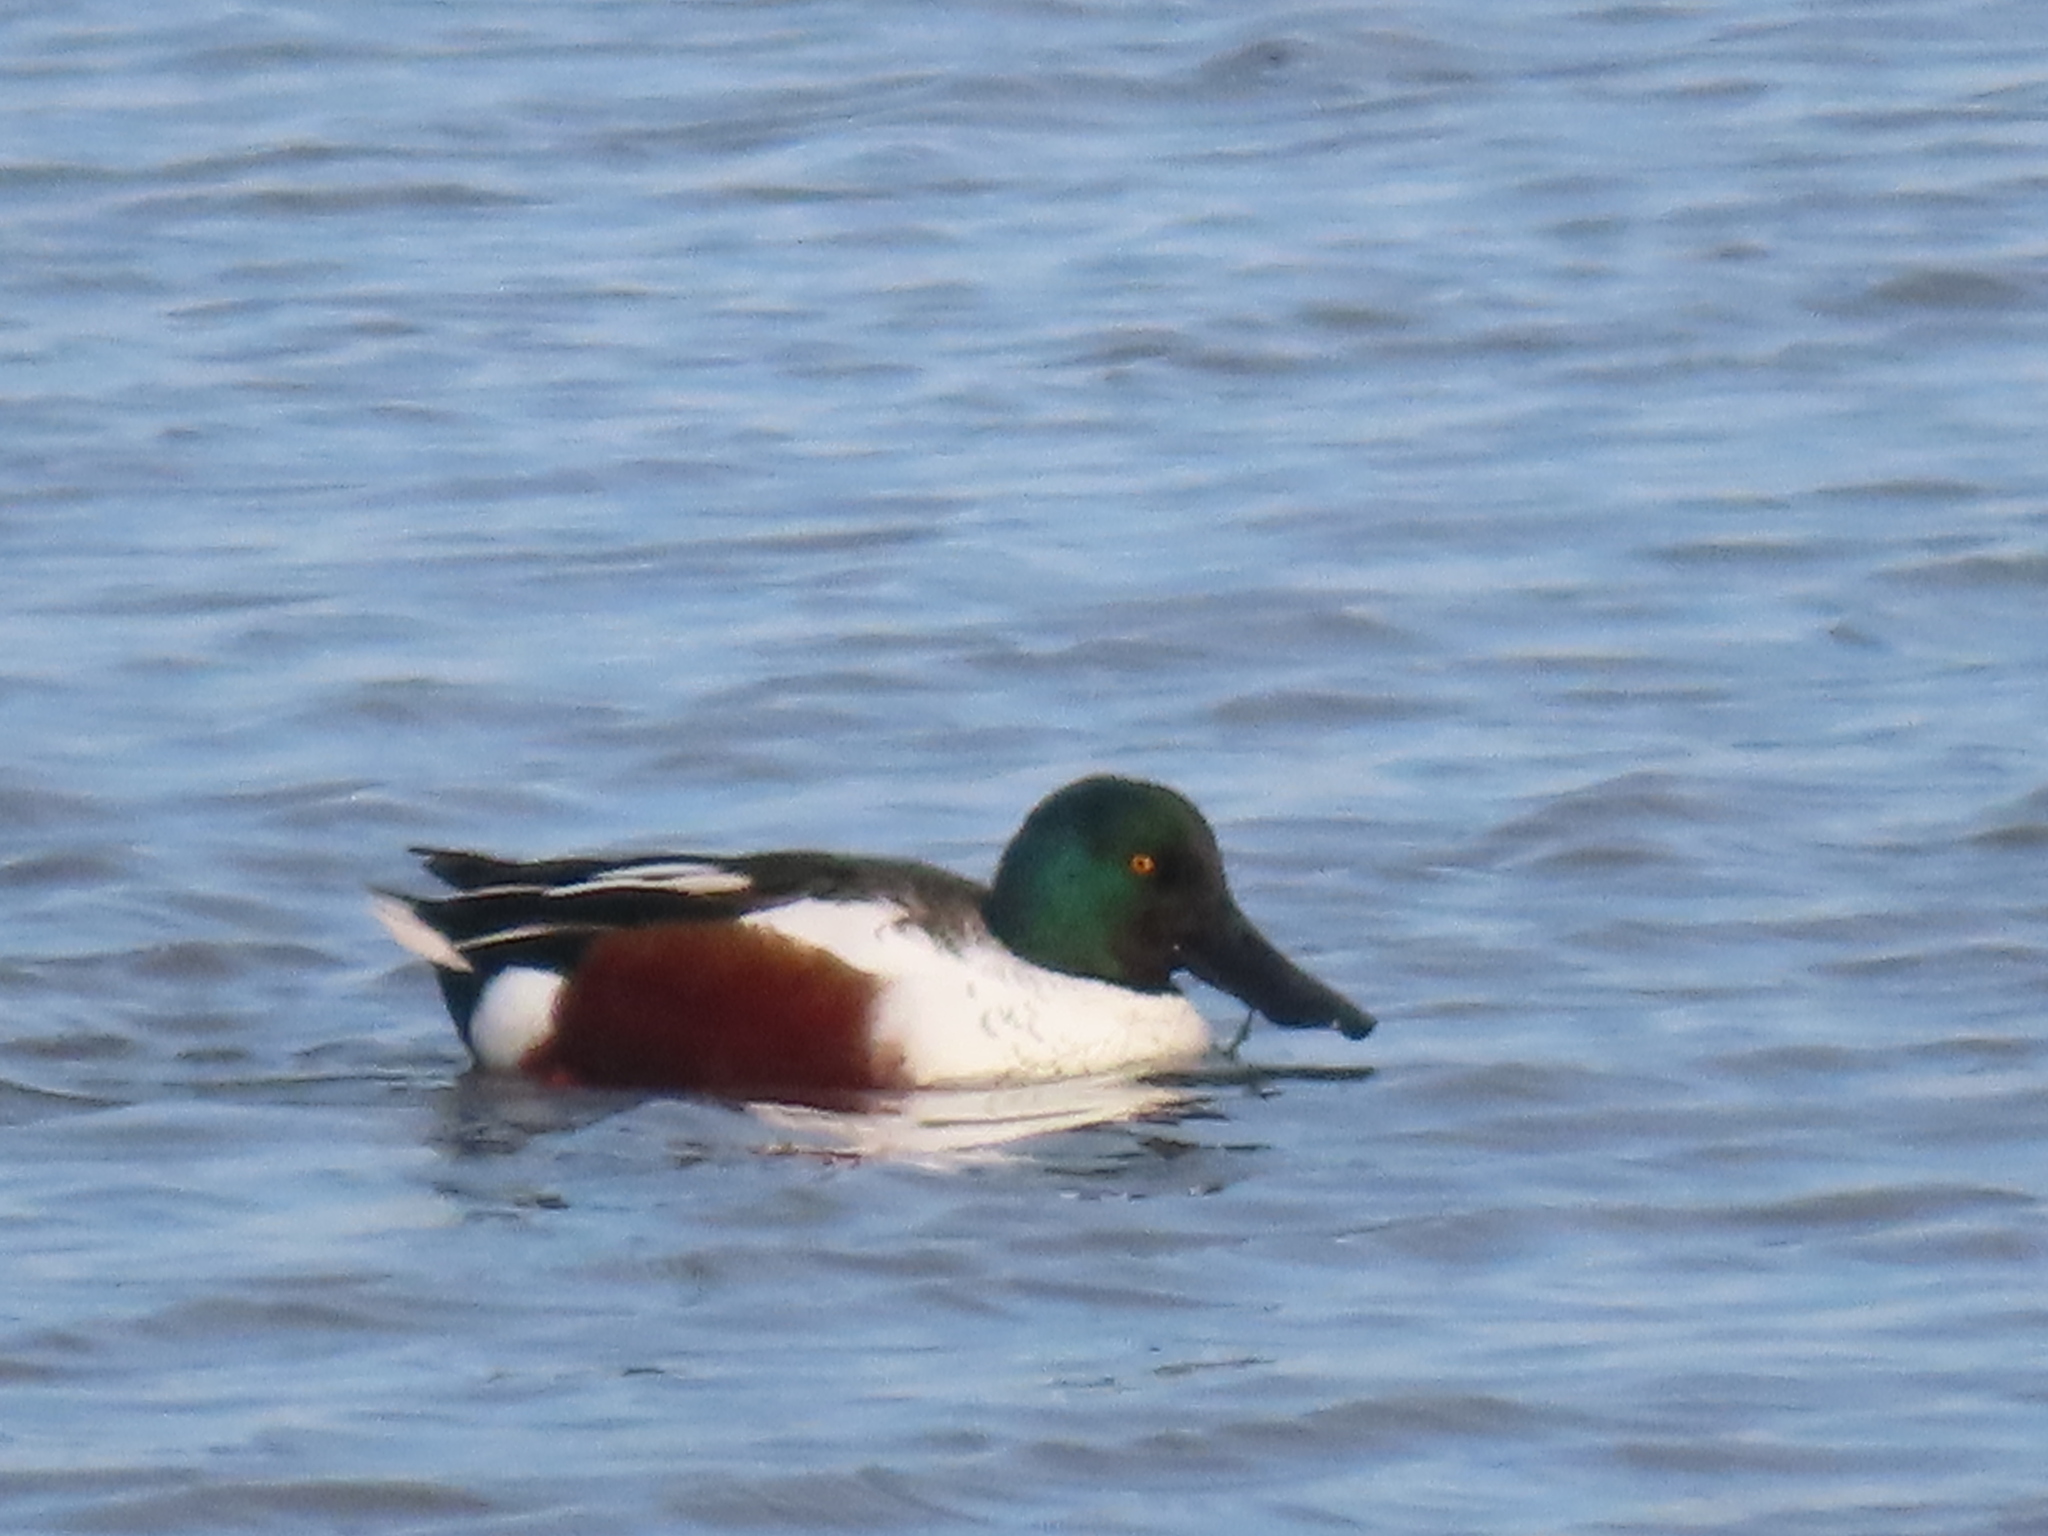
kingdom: Animalia
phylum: Chordata
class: Aves
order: Anseriformes
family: Anatidae
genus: Spatula
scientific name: Spatula clypeata
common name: Northern shoveler
